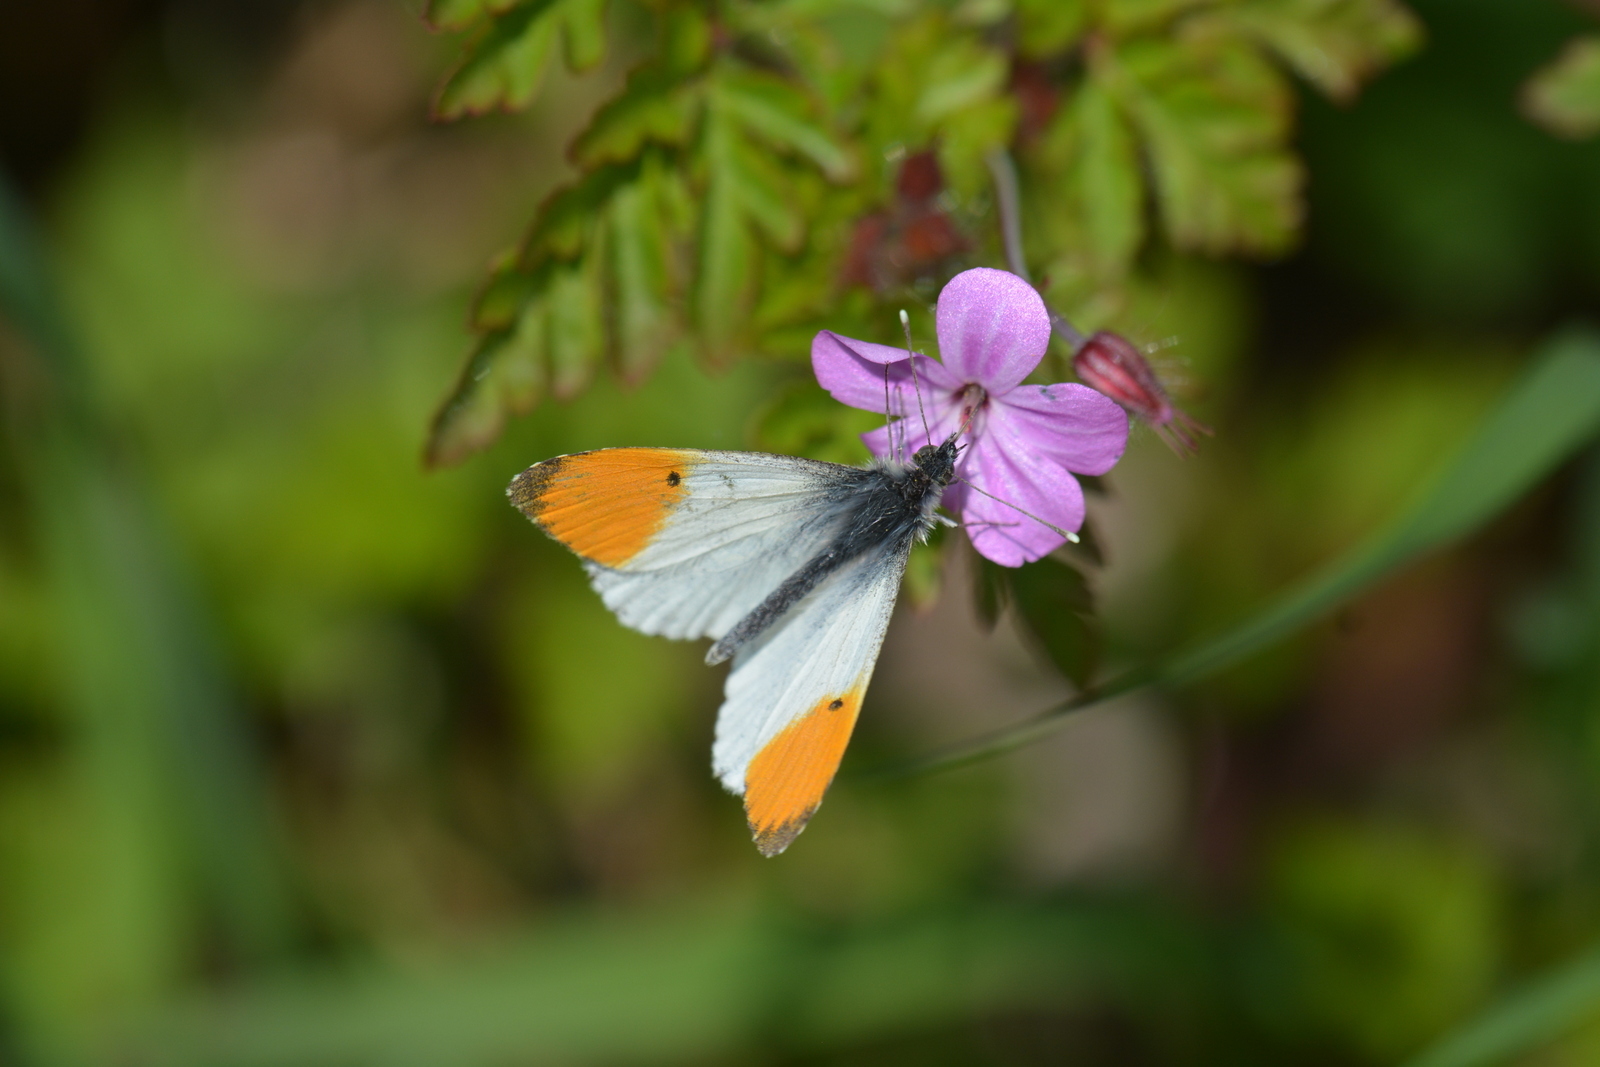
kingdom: Animalia
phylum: Arthropoda
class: Insecta
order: Lepidoptera
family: Pieridae
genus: Anthocharis
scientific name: Anthocharis cardamines
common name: Orange-tip
